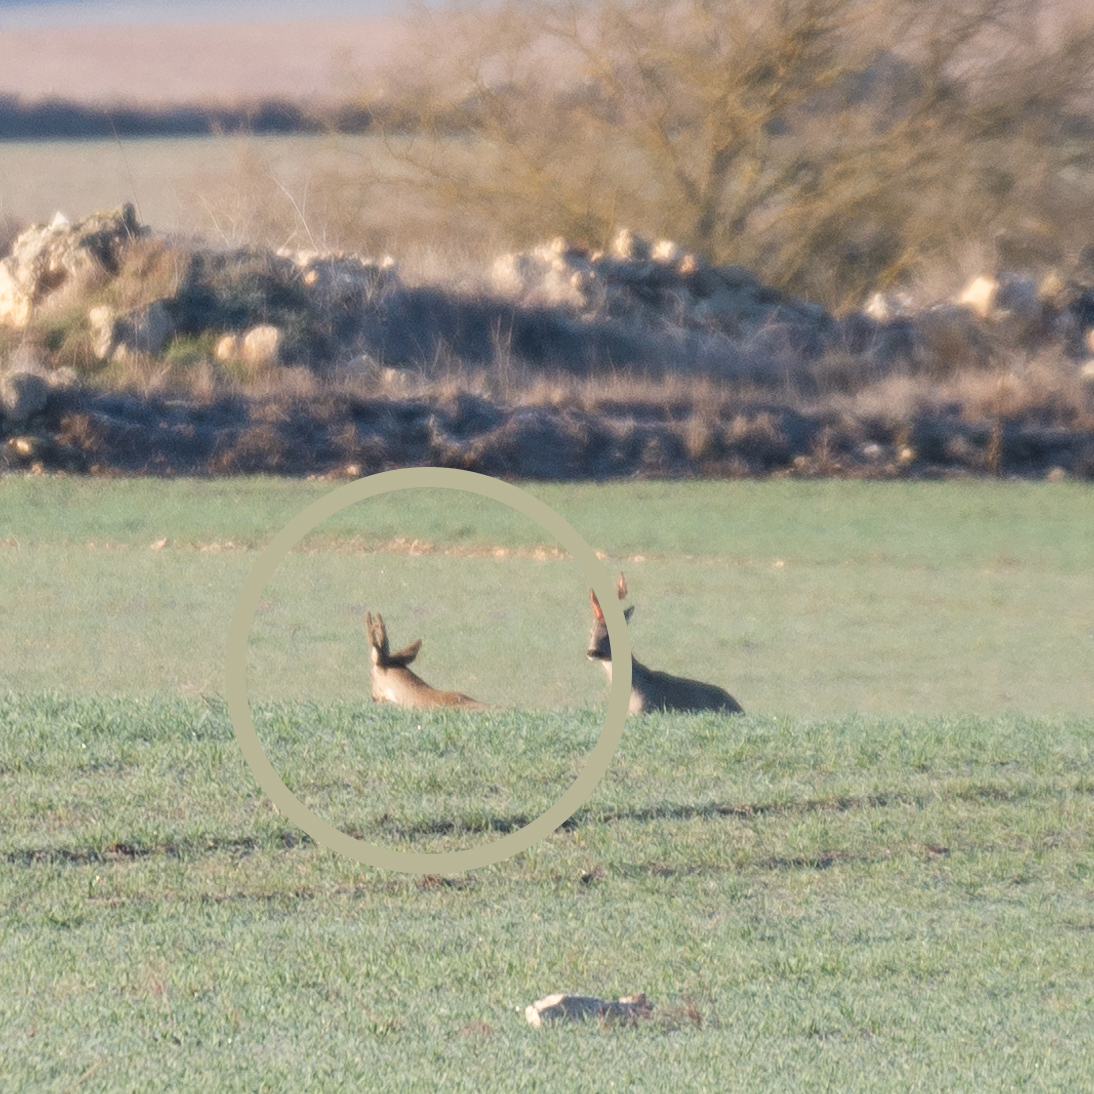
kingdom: Animalia
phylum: Chordata
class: Mammalia
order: Artiodactyla
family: Cervidae
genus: Capreolus
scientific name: Capreolus capreolus
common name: Western roe deer
